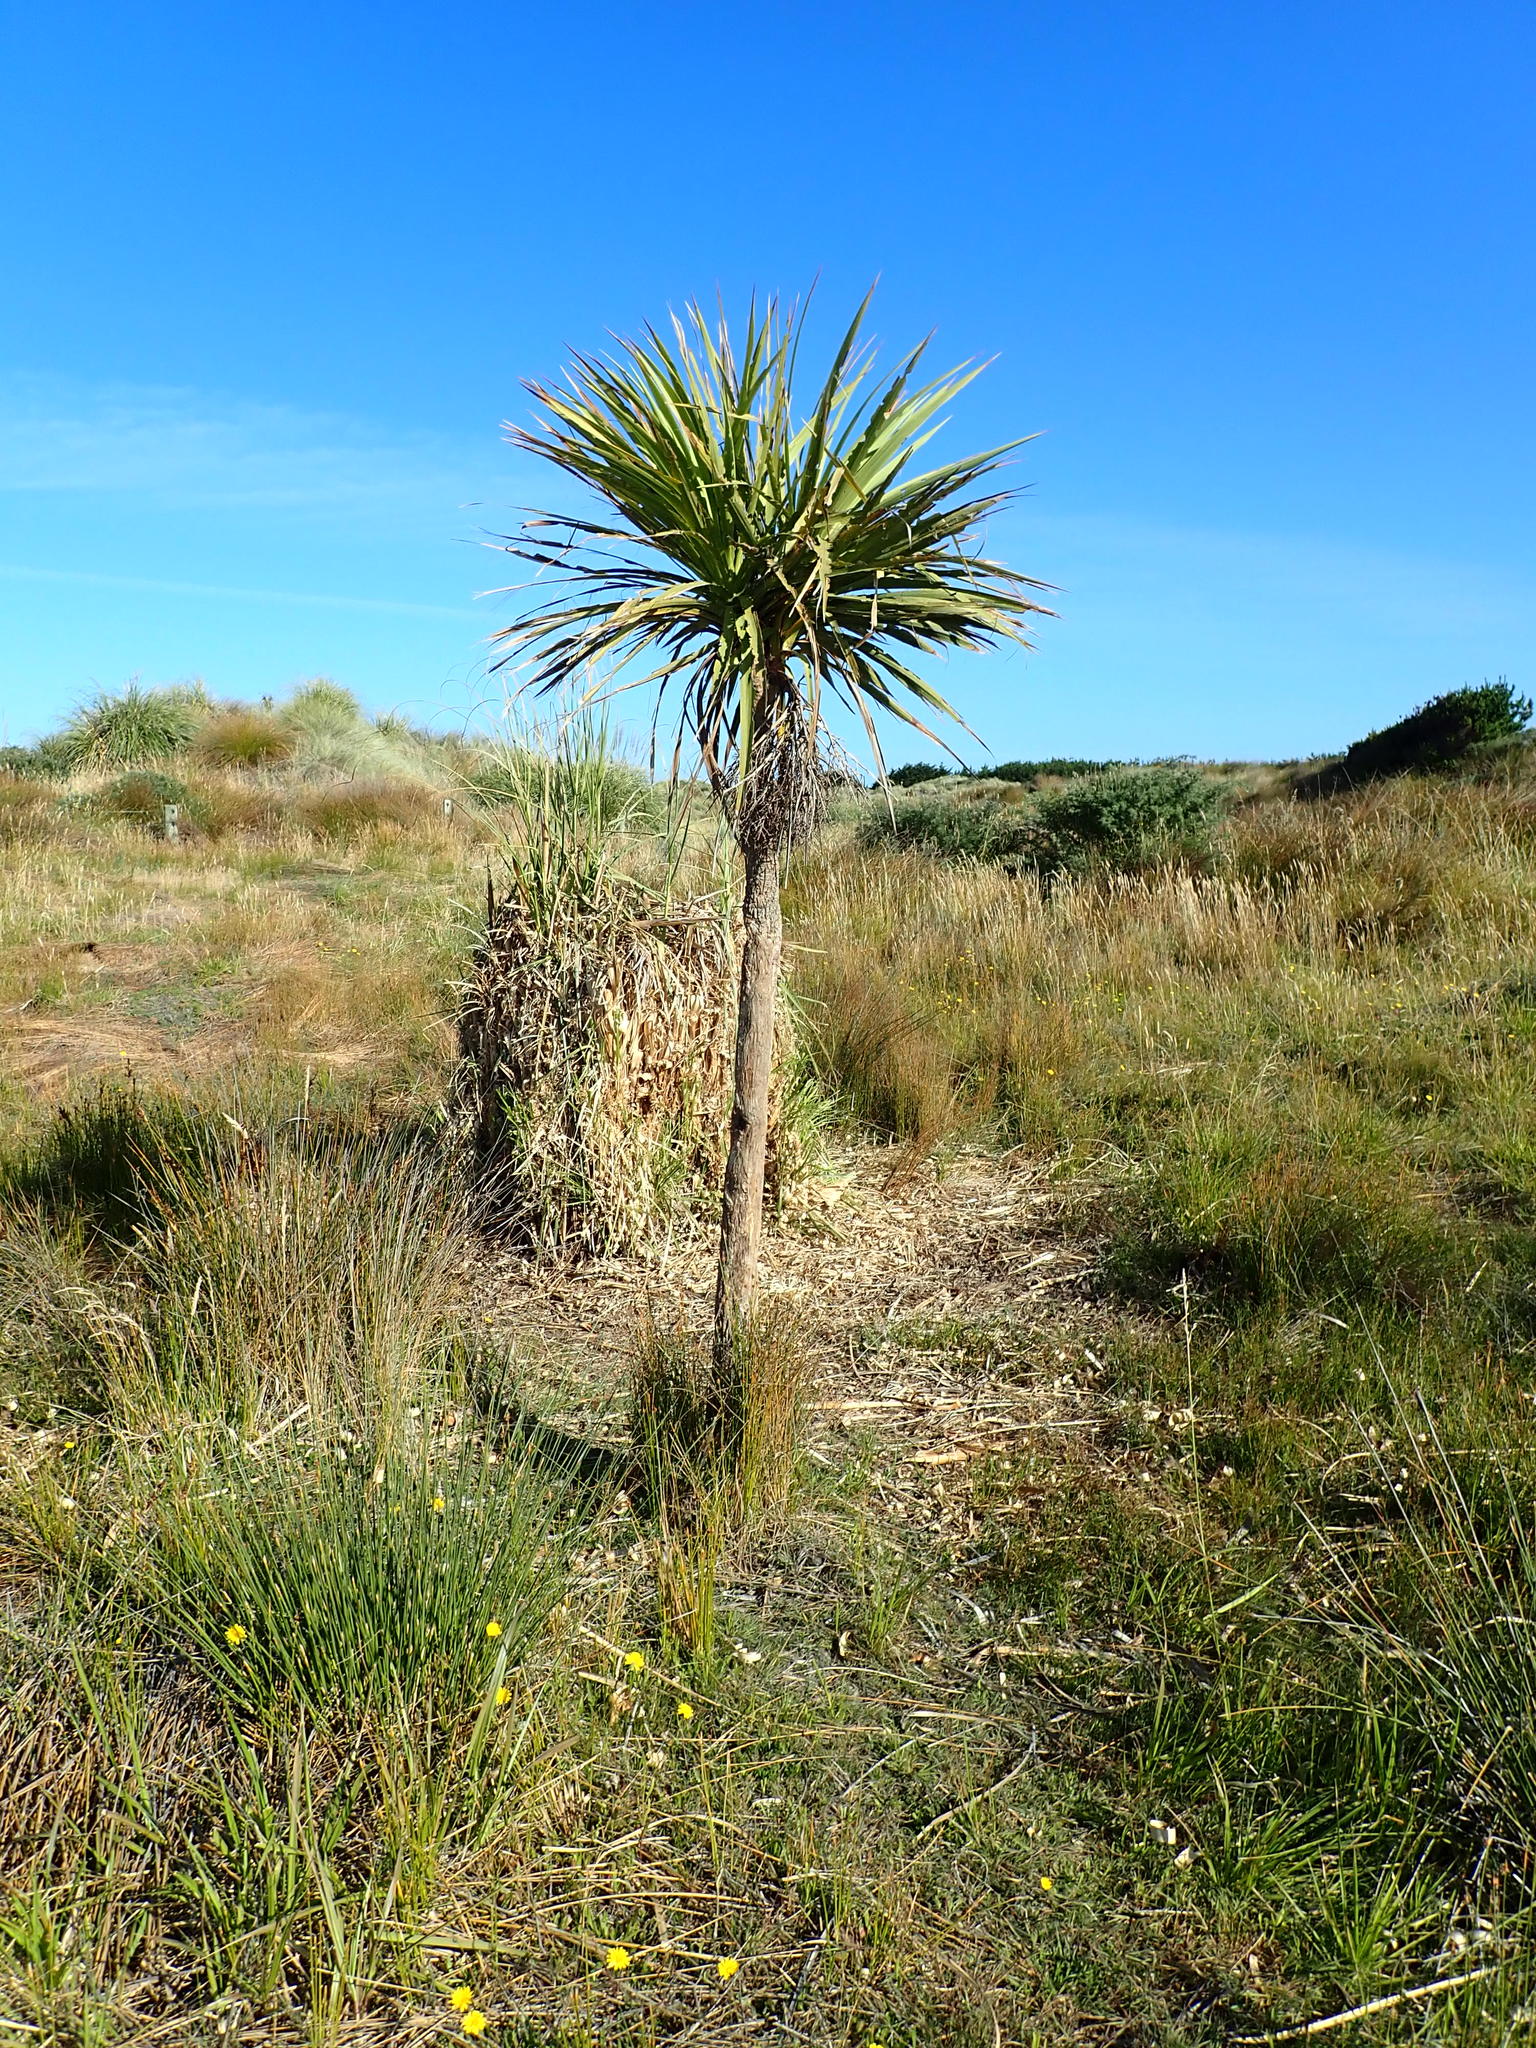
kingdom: Plantae
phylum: Tracheophyta
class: Liliopsida
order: Asparagales
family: Asparagaceae
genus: Cordyline
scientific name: Cordyline australis
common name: Cabbage-palm
